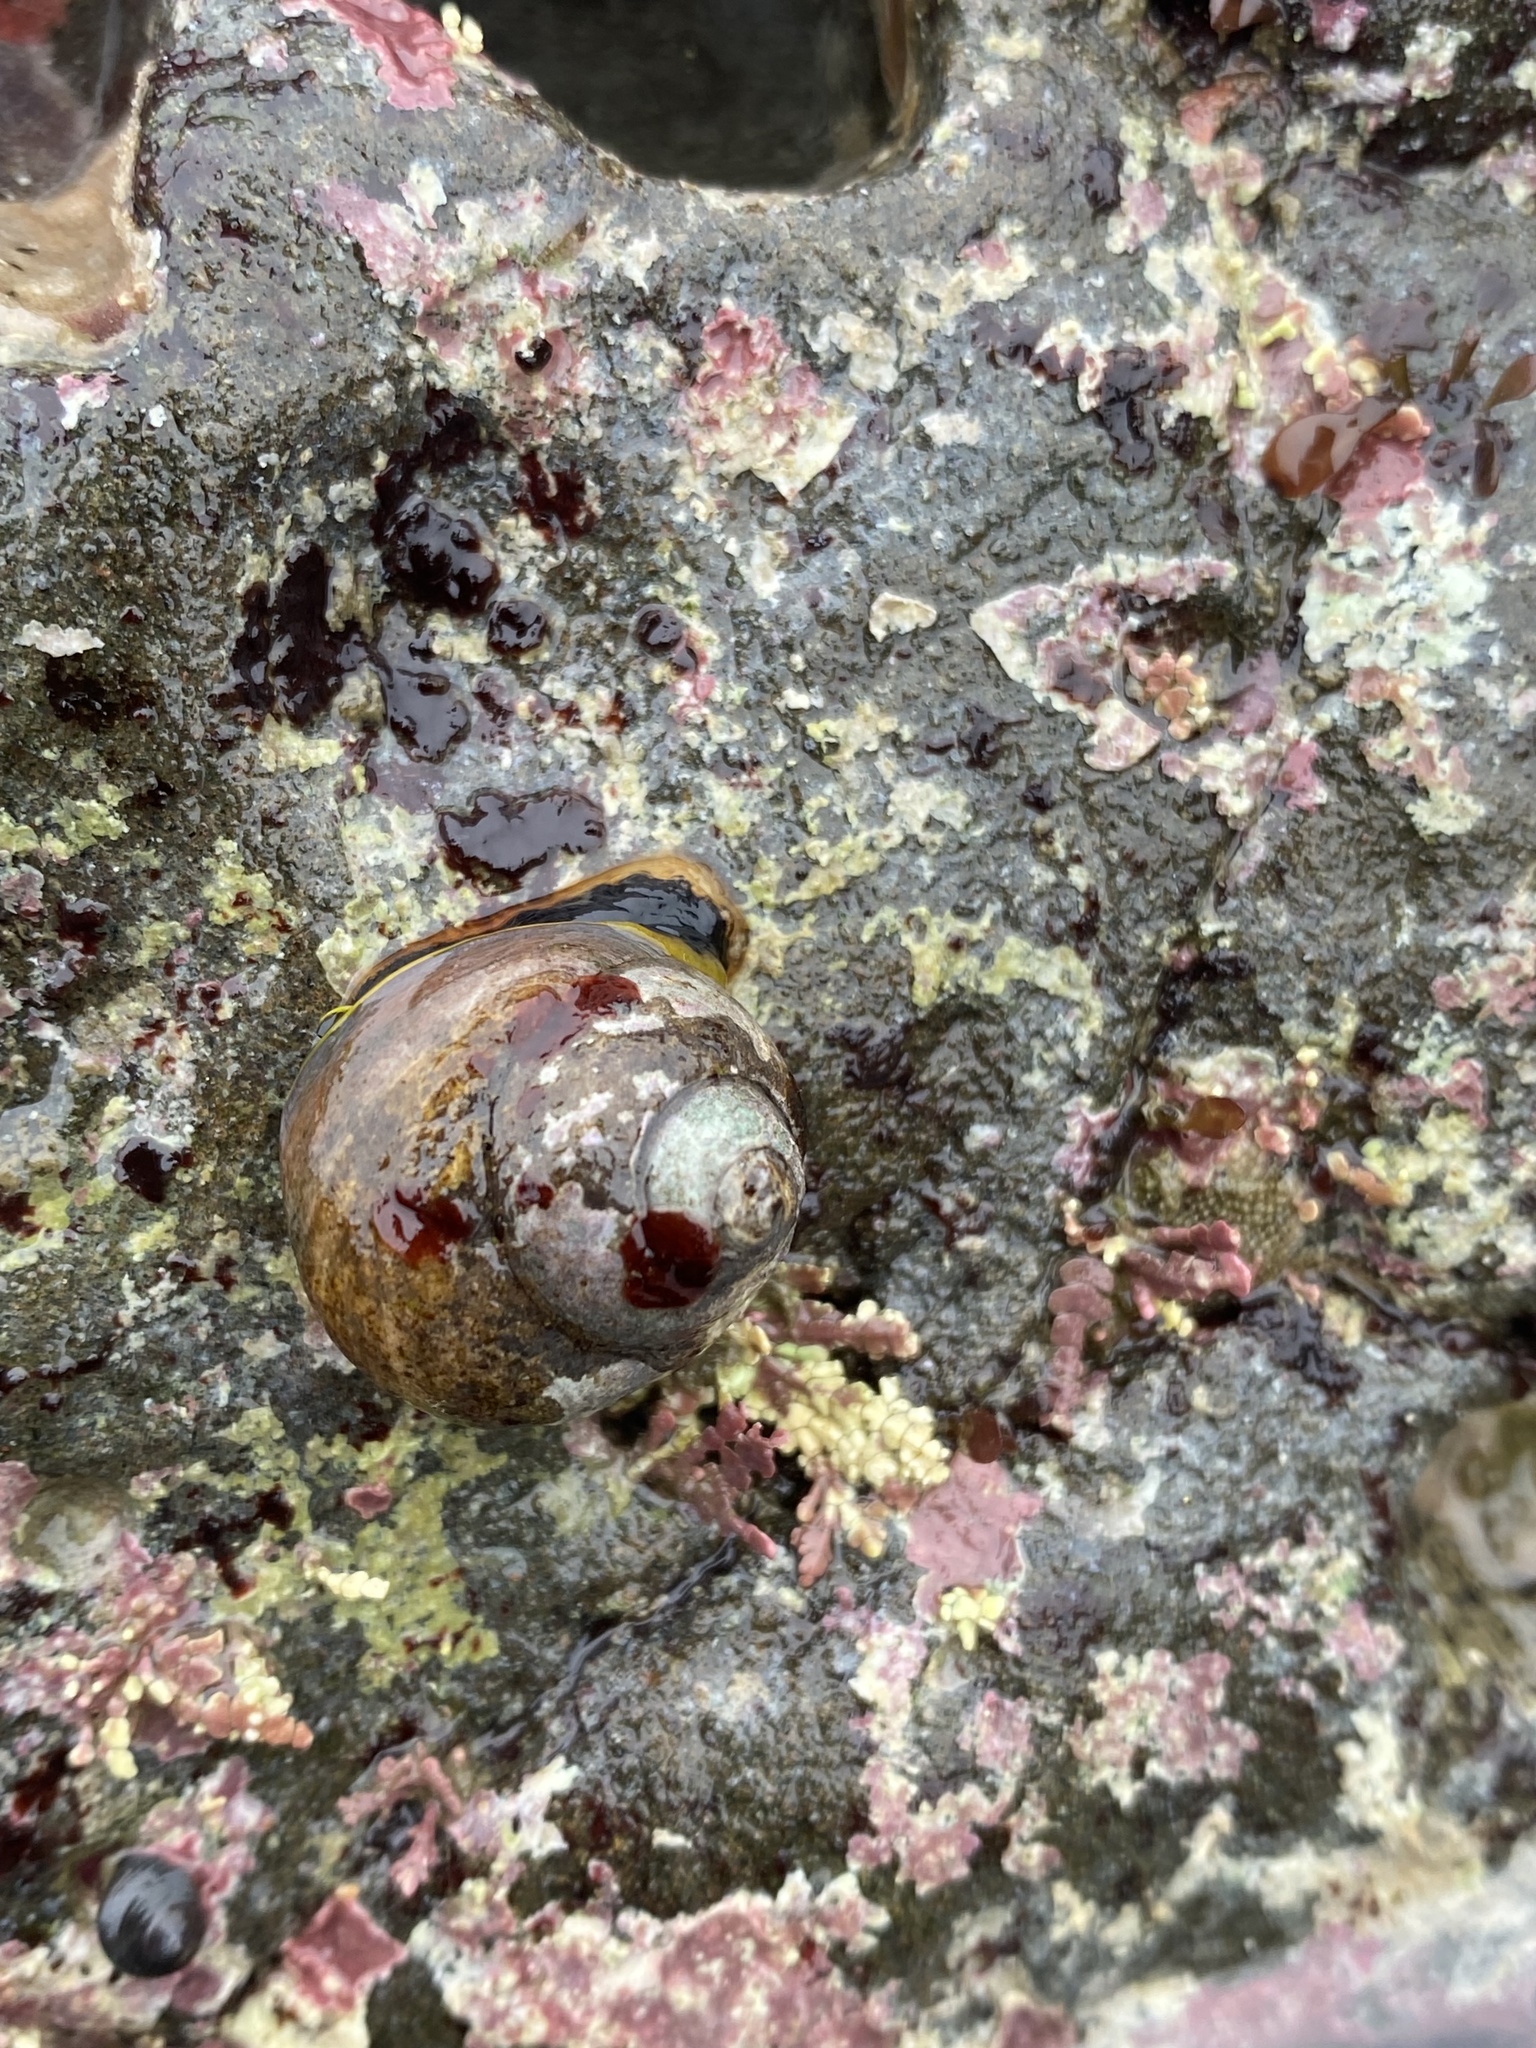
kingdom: Animalia
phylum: Mollusca
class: Gastropoda
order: Trochida
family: Tegulidae
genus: Tegula
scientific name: Tegula brunnea
